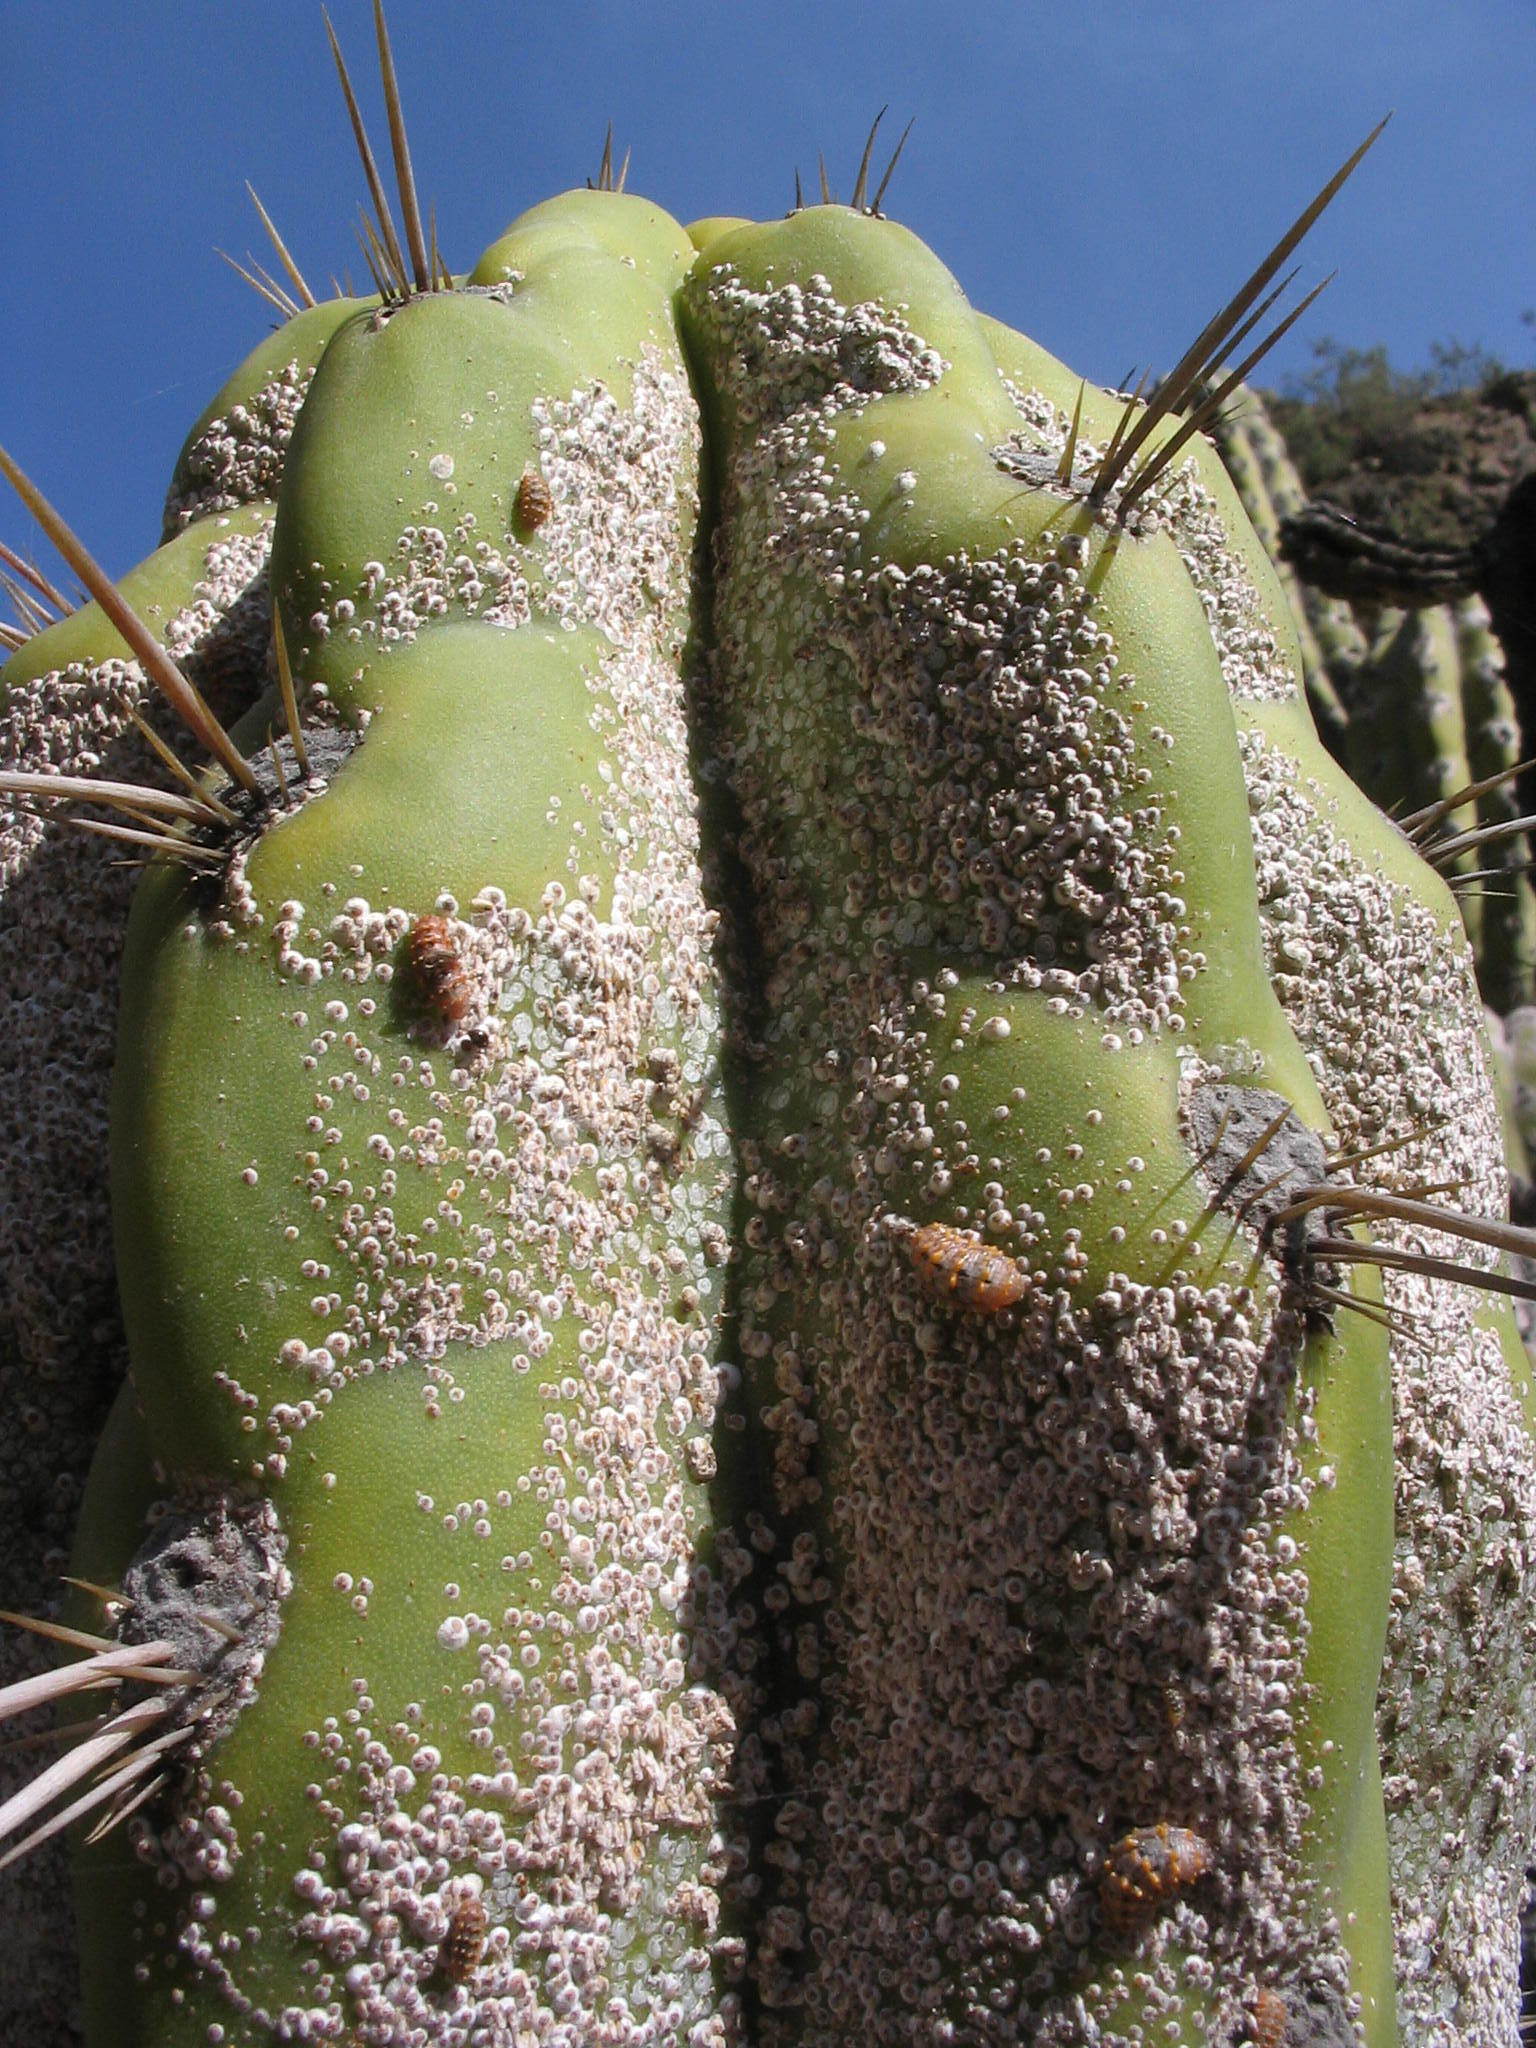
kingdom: Animalia
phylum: Arthropoda
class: Insecta
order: Hemiptera
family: Diaspididae
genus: Diaspis
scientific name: Diaspis echinocacti
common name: Cactus scale
